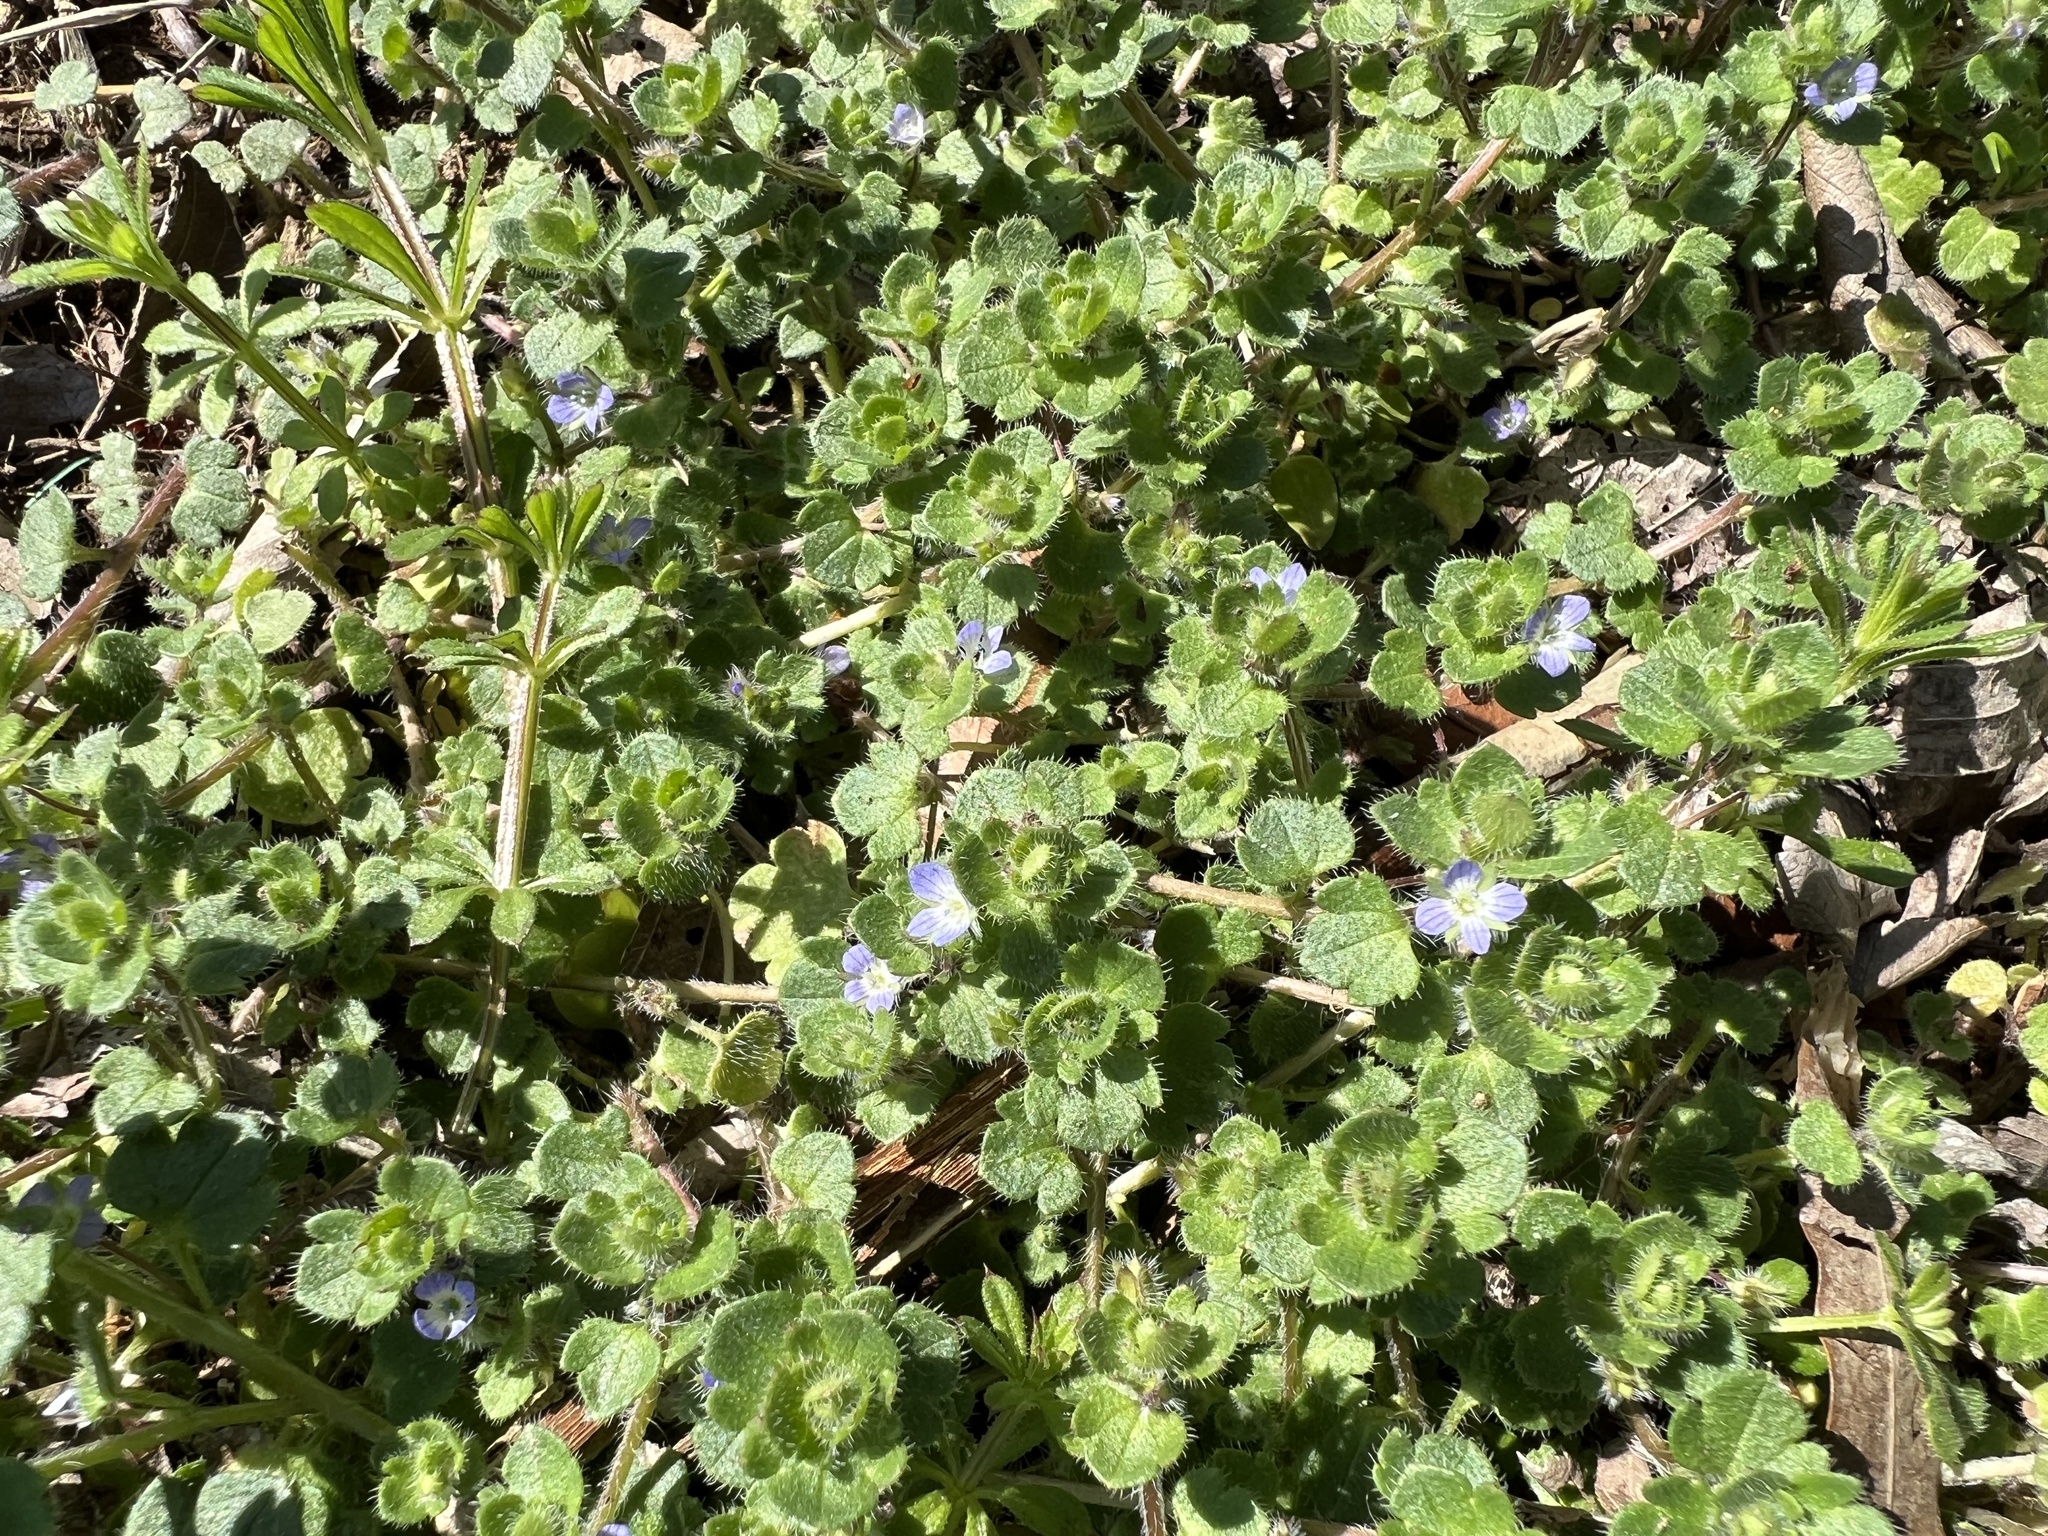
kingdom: Plantae
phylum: Tracheophyta
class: Magnoliopsida
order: Lamiales
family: Plantaginaceae
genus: Veronica
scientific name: Veronica hederifolia
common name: Ivy-leaved speedwell
